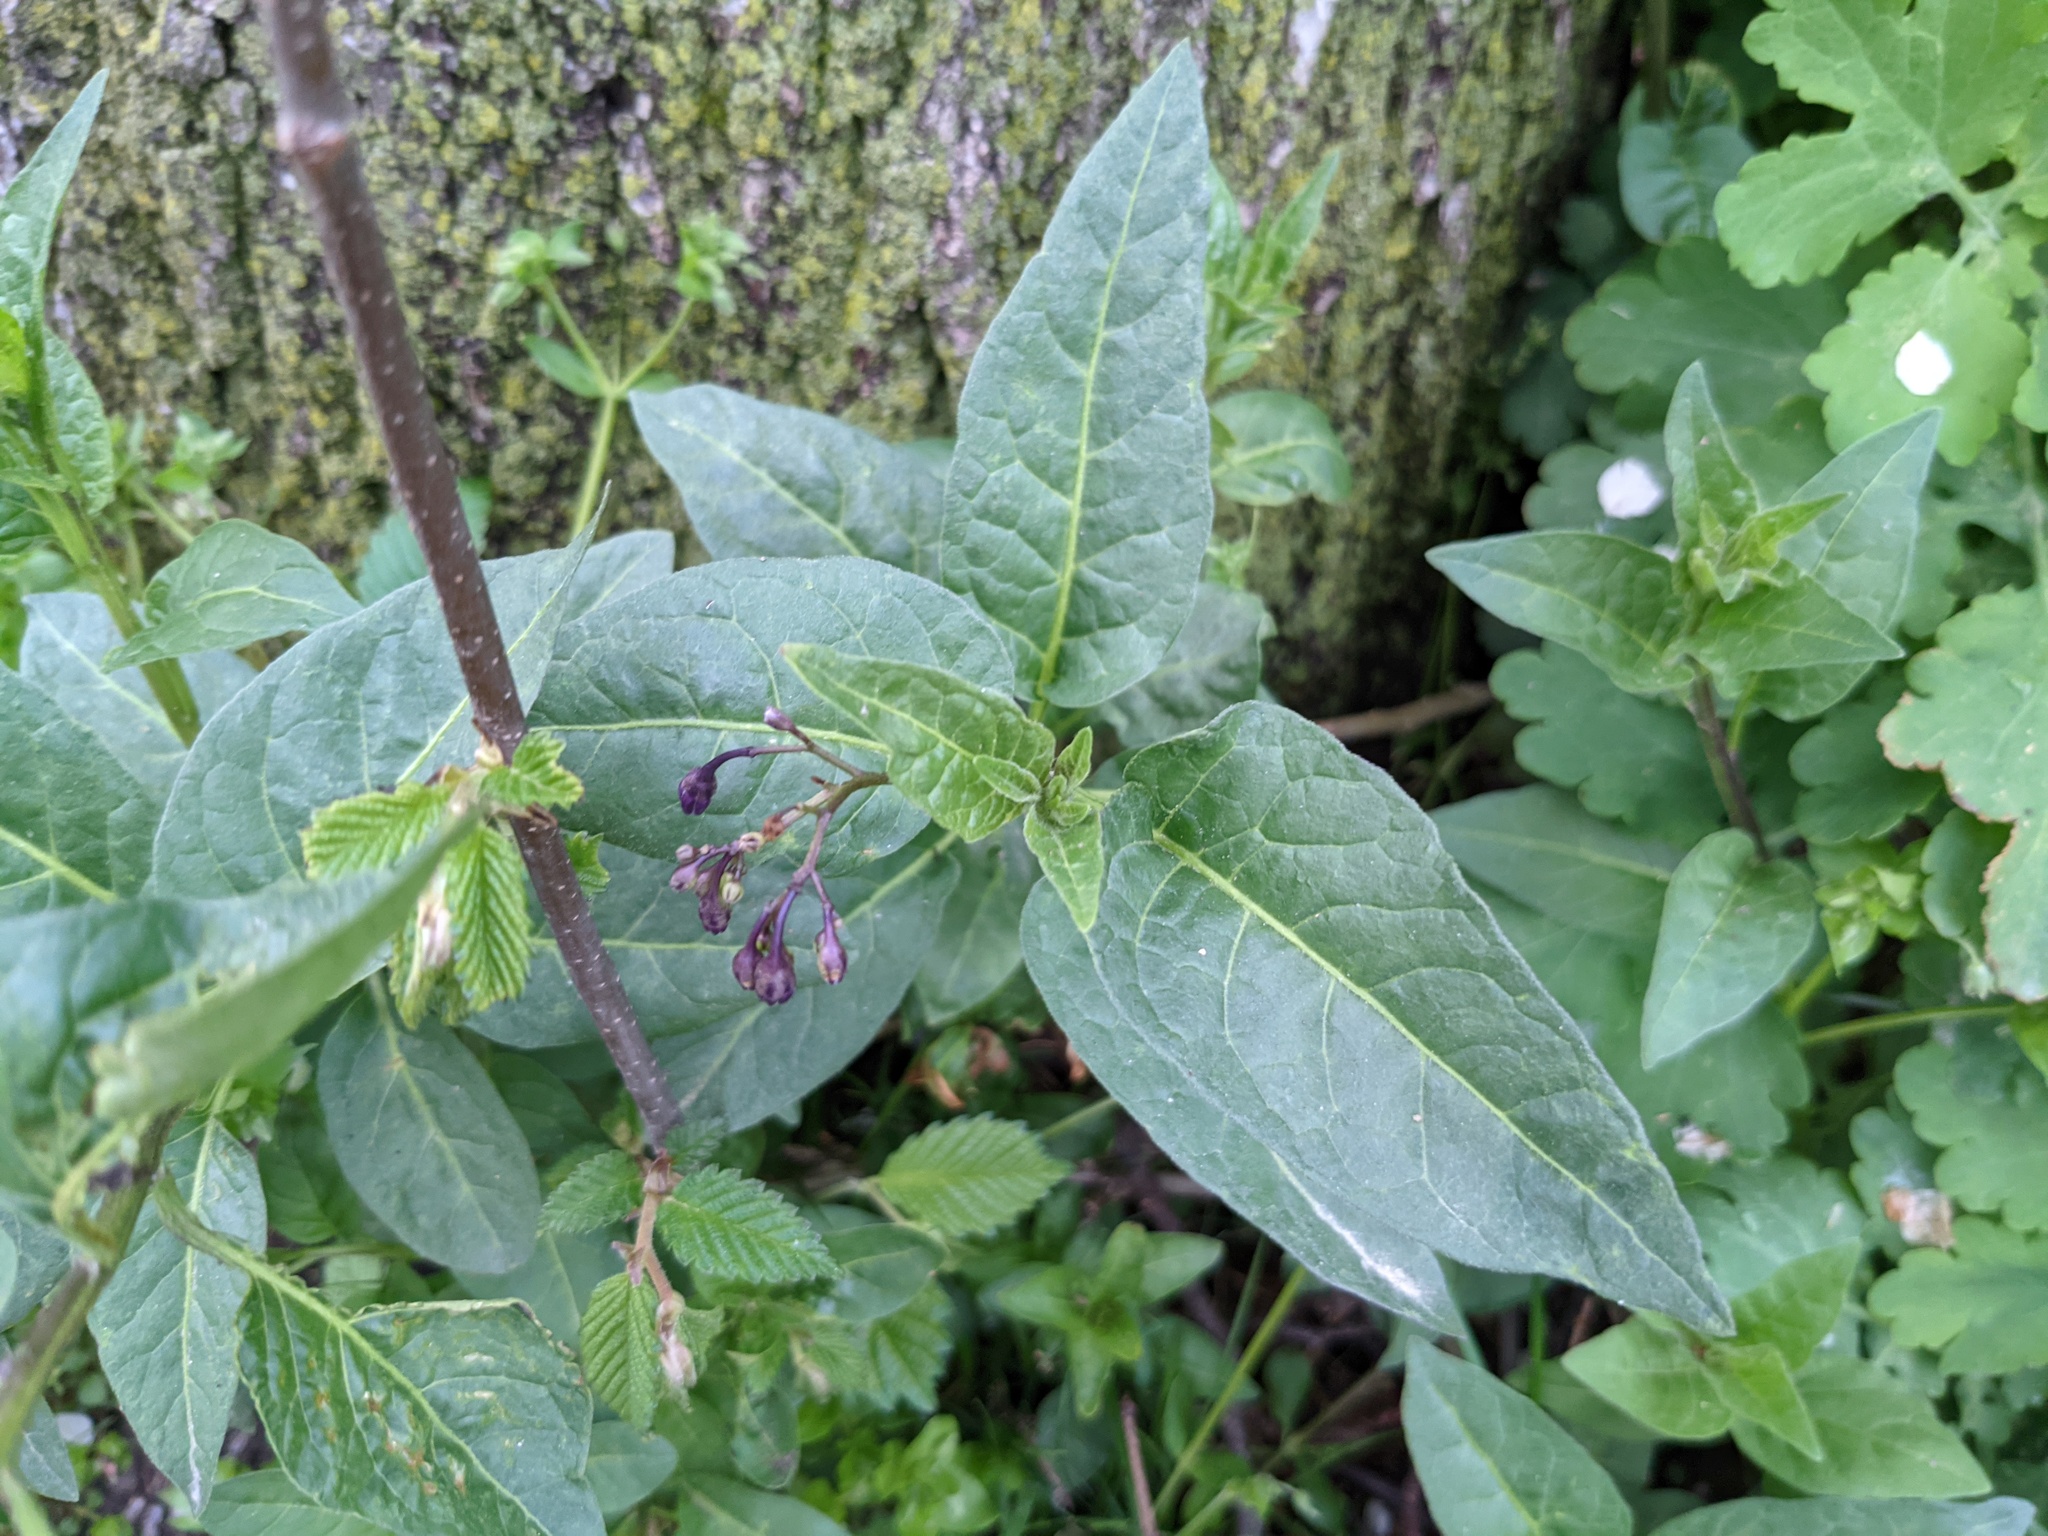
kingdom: Plantae
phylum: Tracheophyta
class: Magnoliopsida
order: Solanales
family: Solanaceae
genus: Solanum
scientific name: Solanum dulcamara
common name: Climbing nightshade
